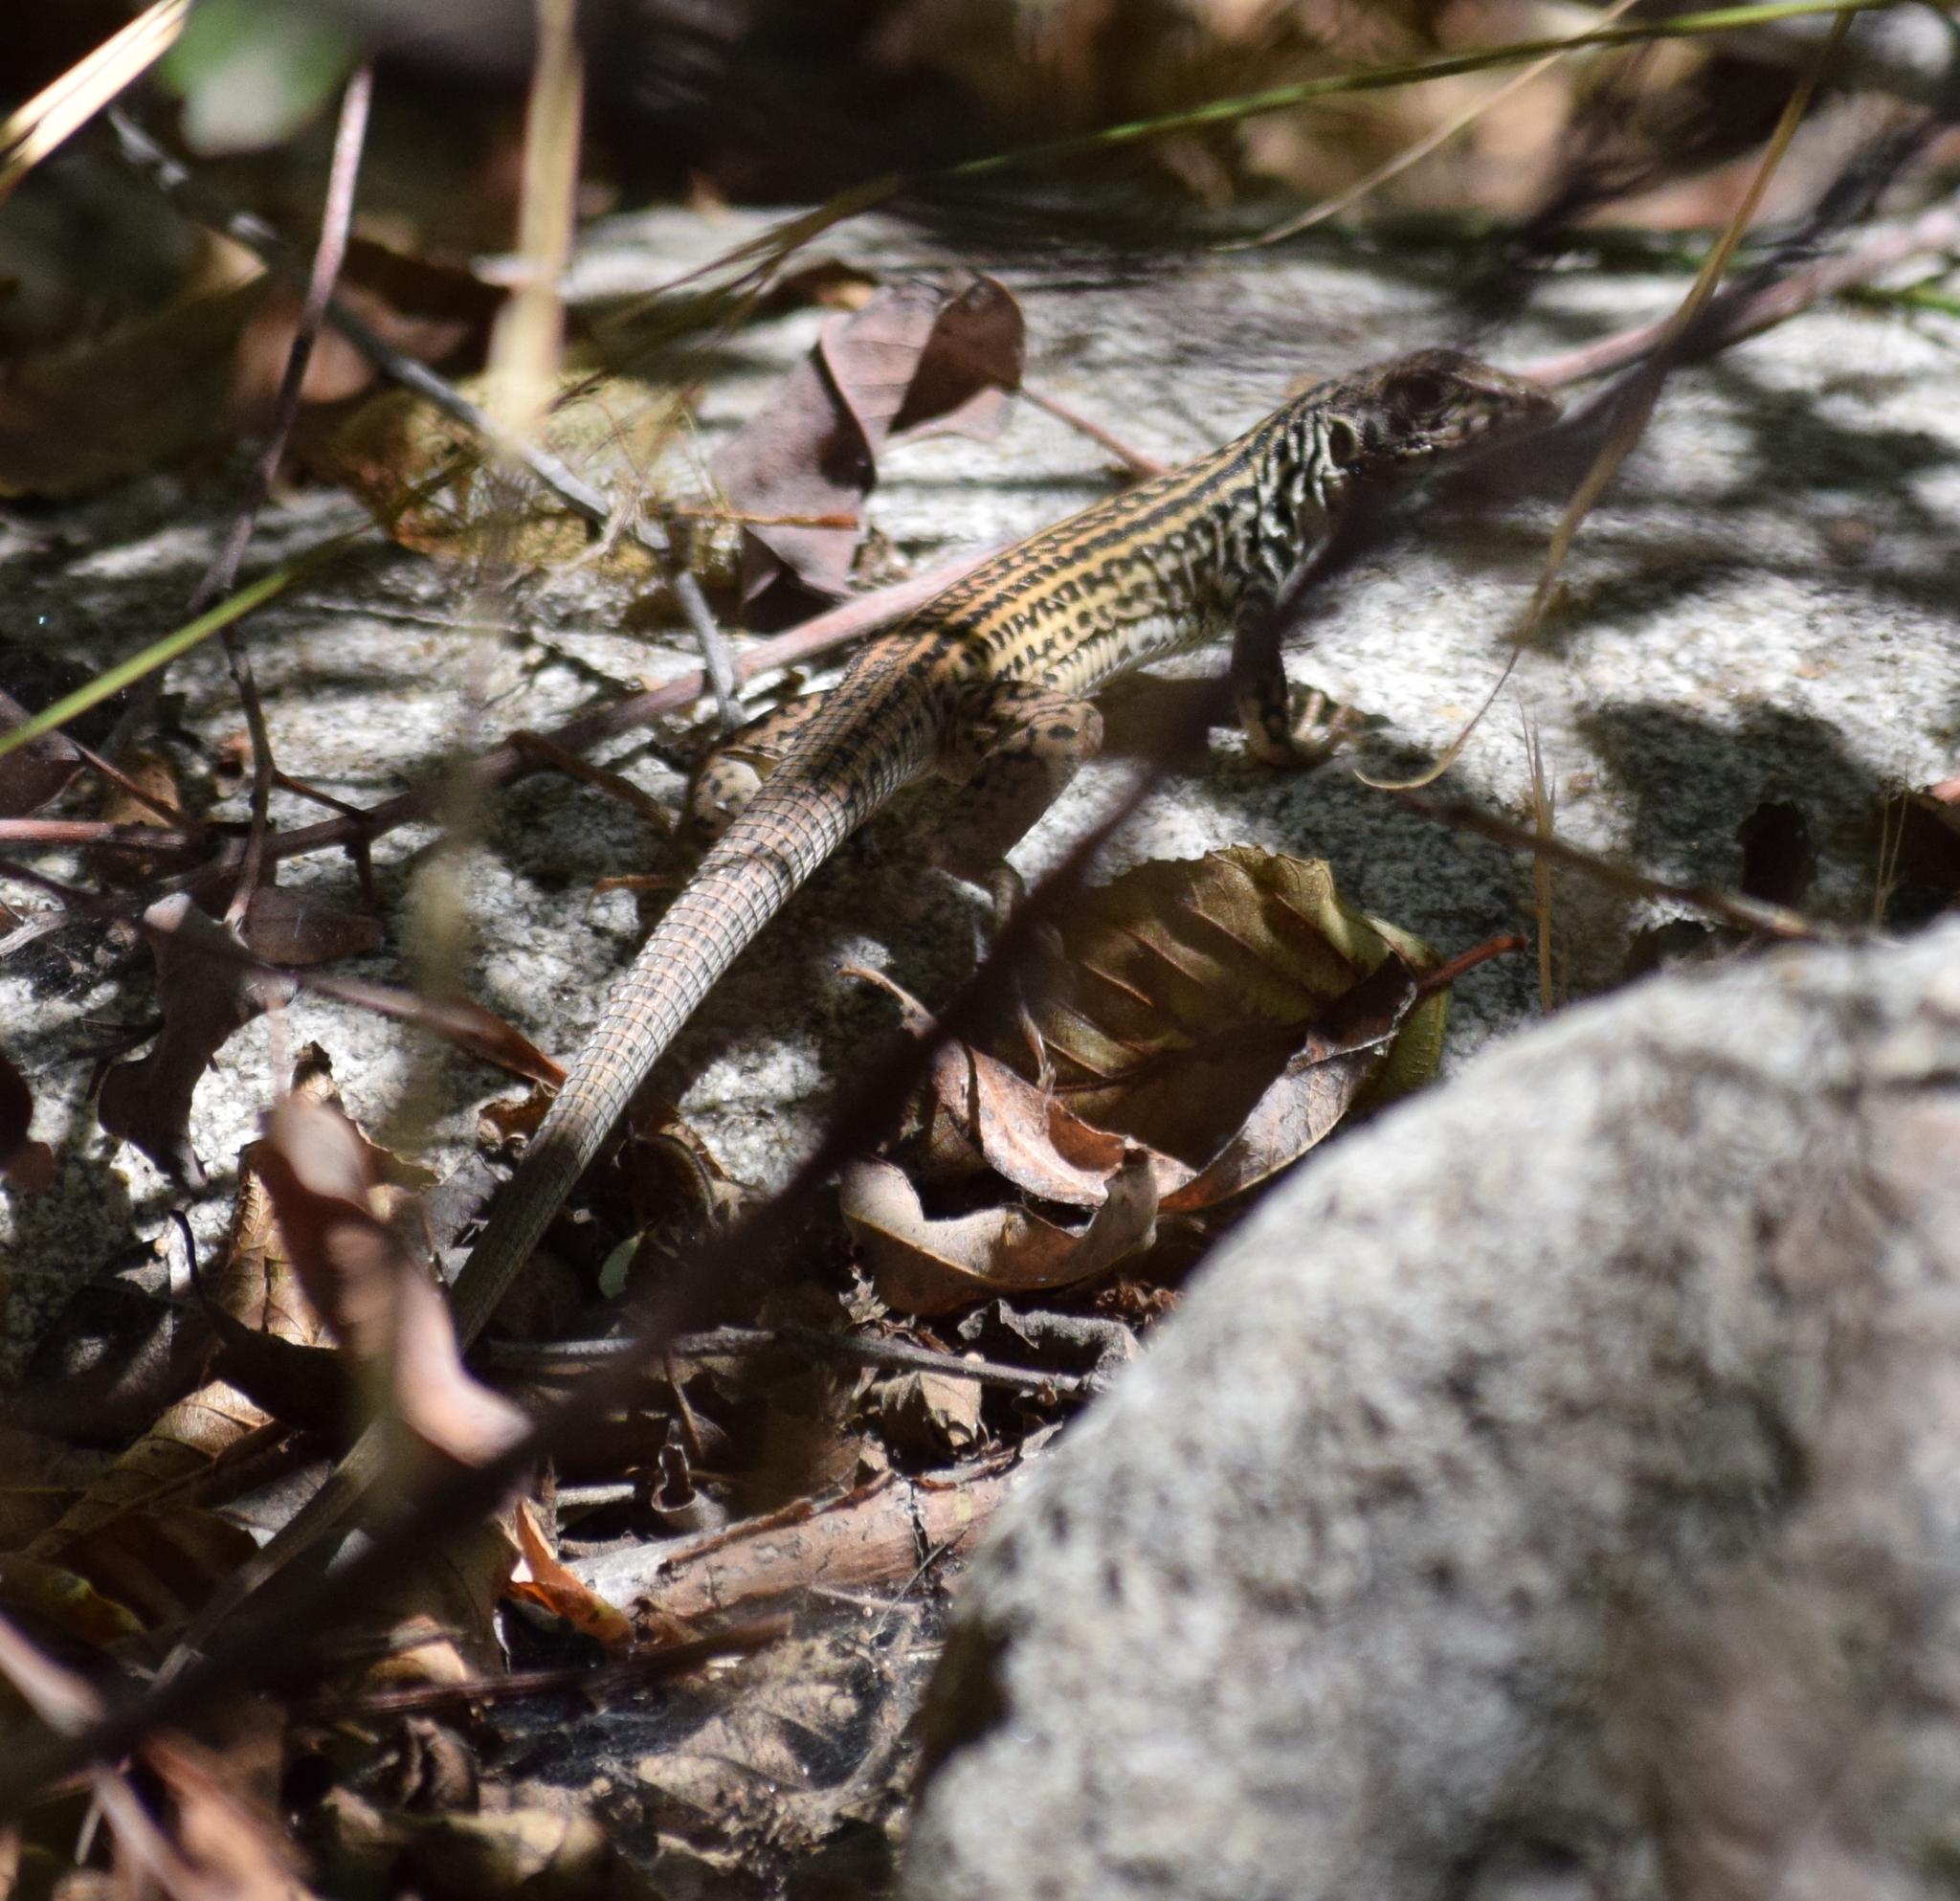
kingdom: Animalia
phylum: Chordata
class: Squamata
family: Teiidae
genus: Aspidoscelis
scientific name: Aspidoscelis tigris
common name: Tiger whiptail
